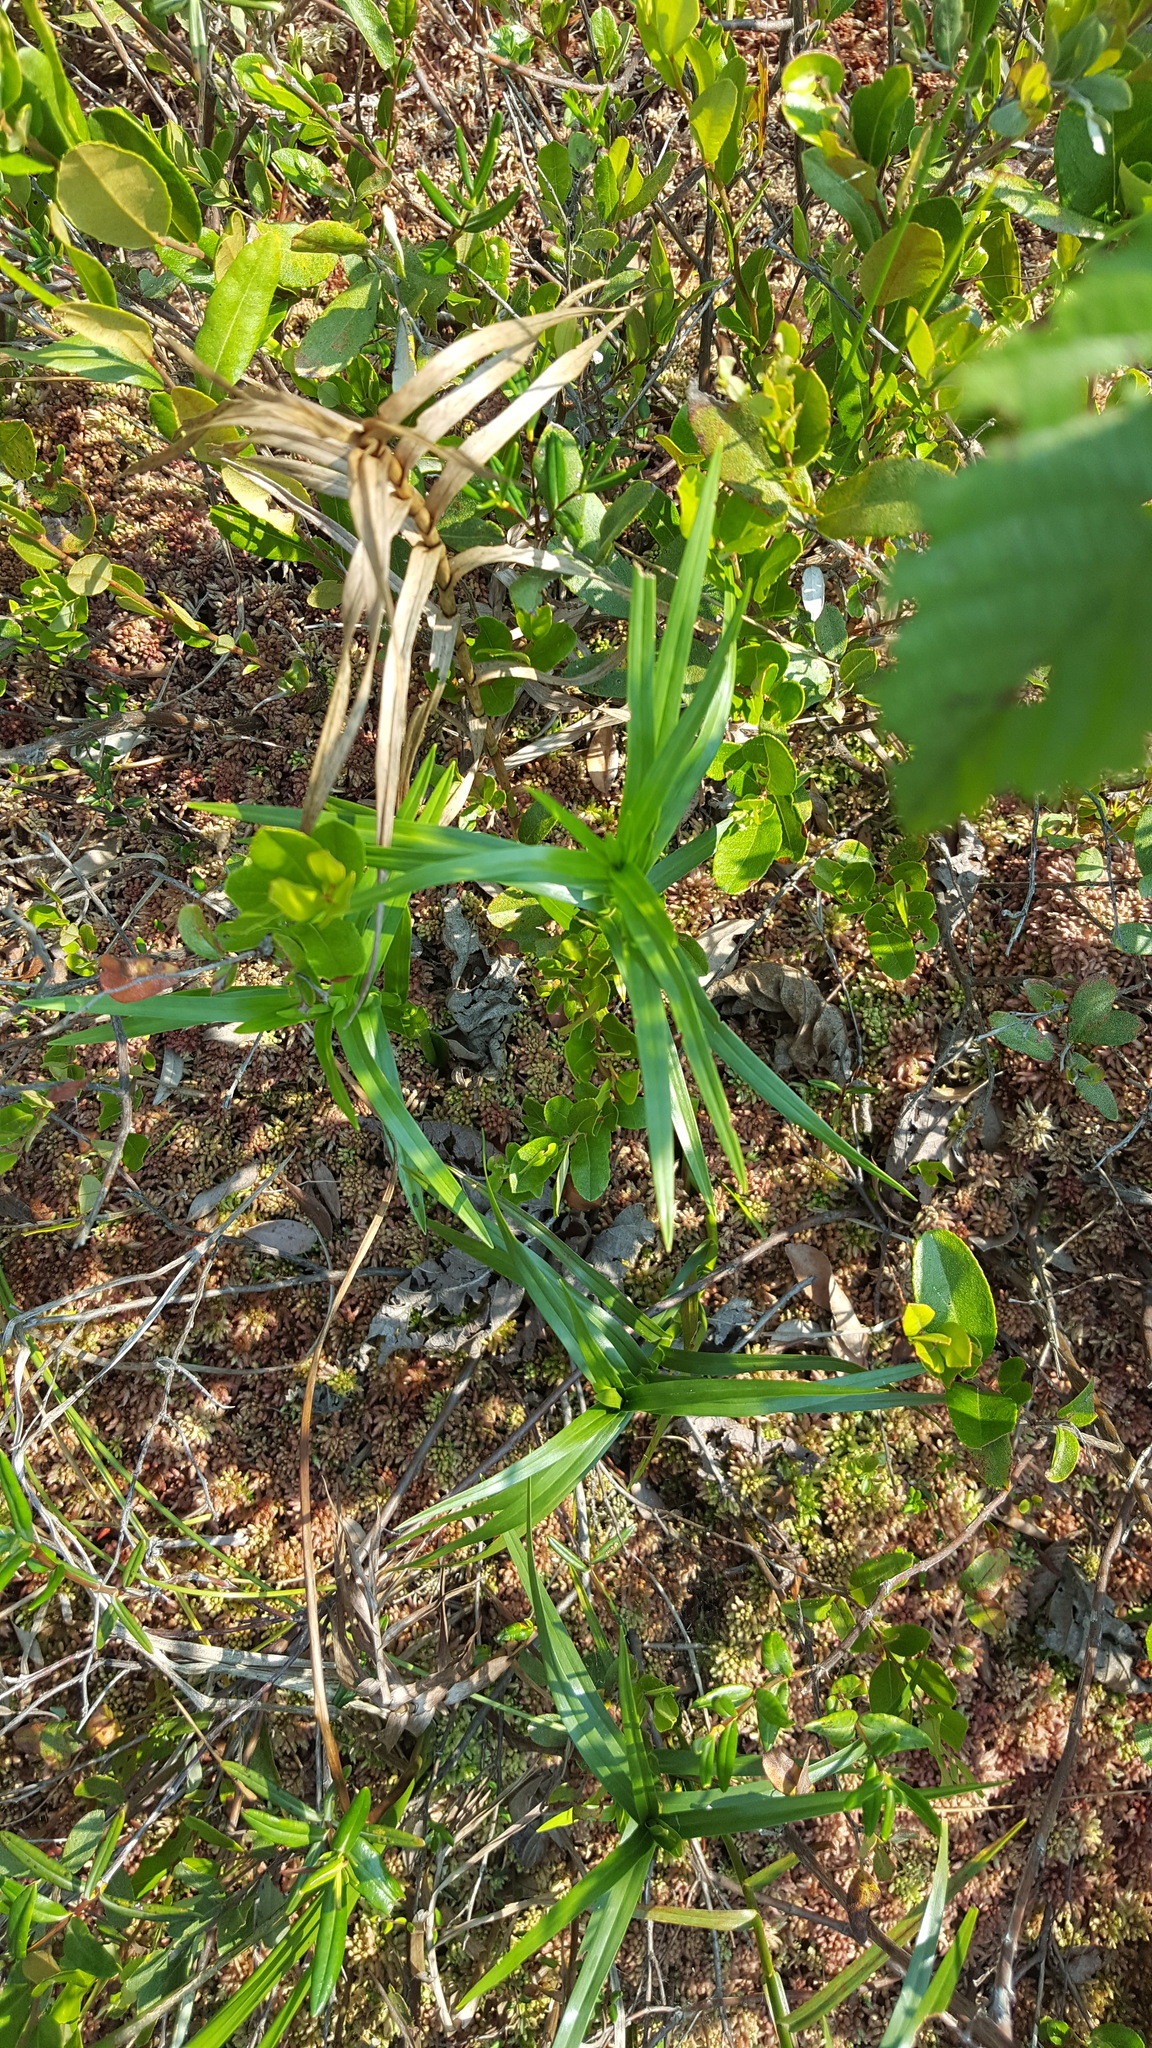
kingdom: Plantae
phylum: Tracheophyta
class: Liliopsida
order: Poales
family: Cyperaceae
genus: Dulichium
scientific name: Dulichium arundinaceum
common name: Three-way sedge
